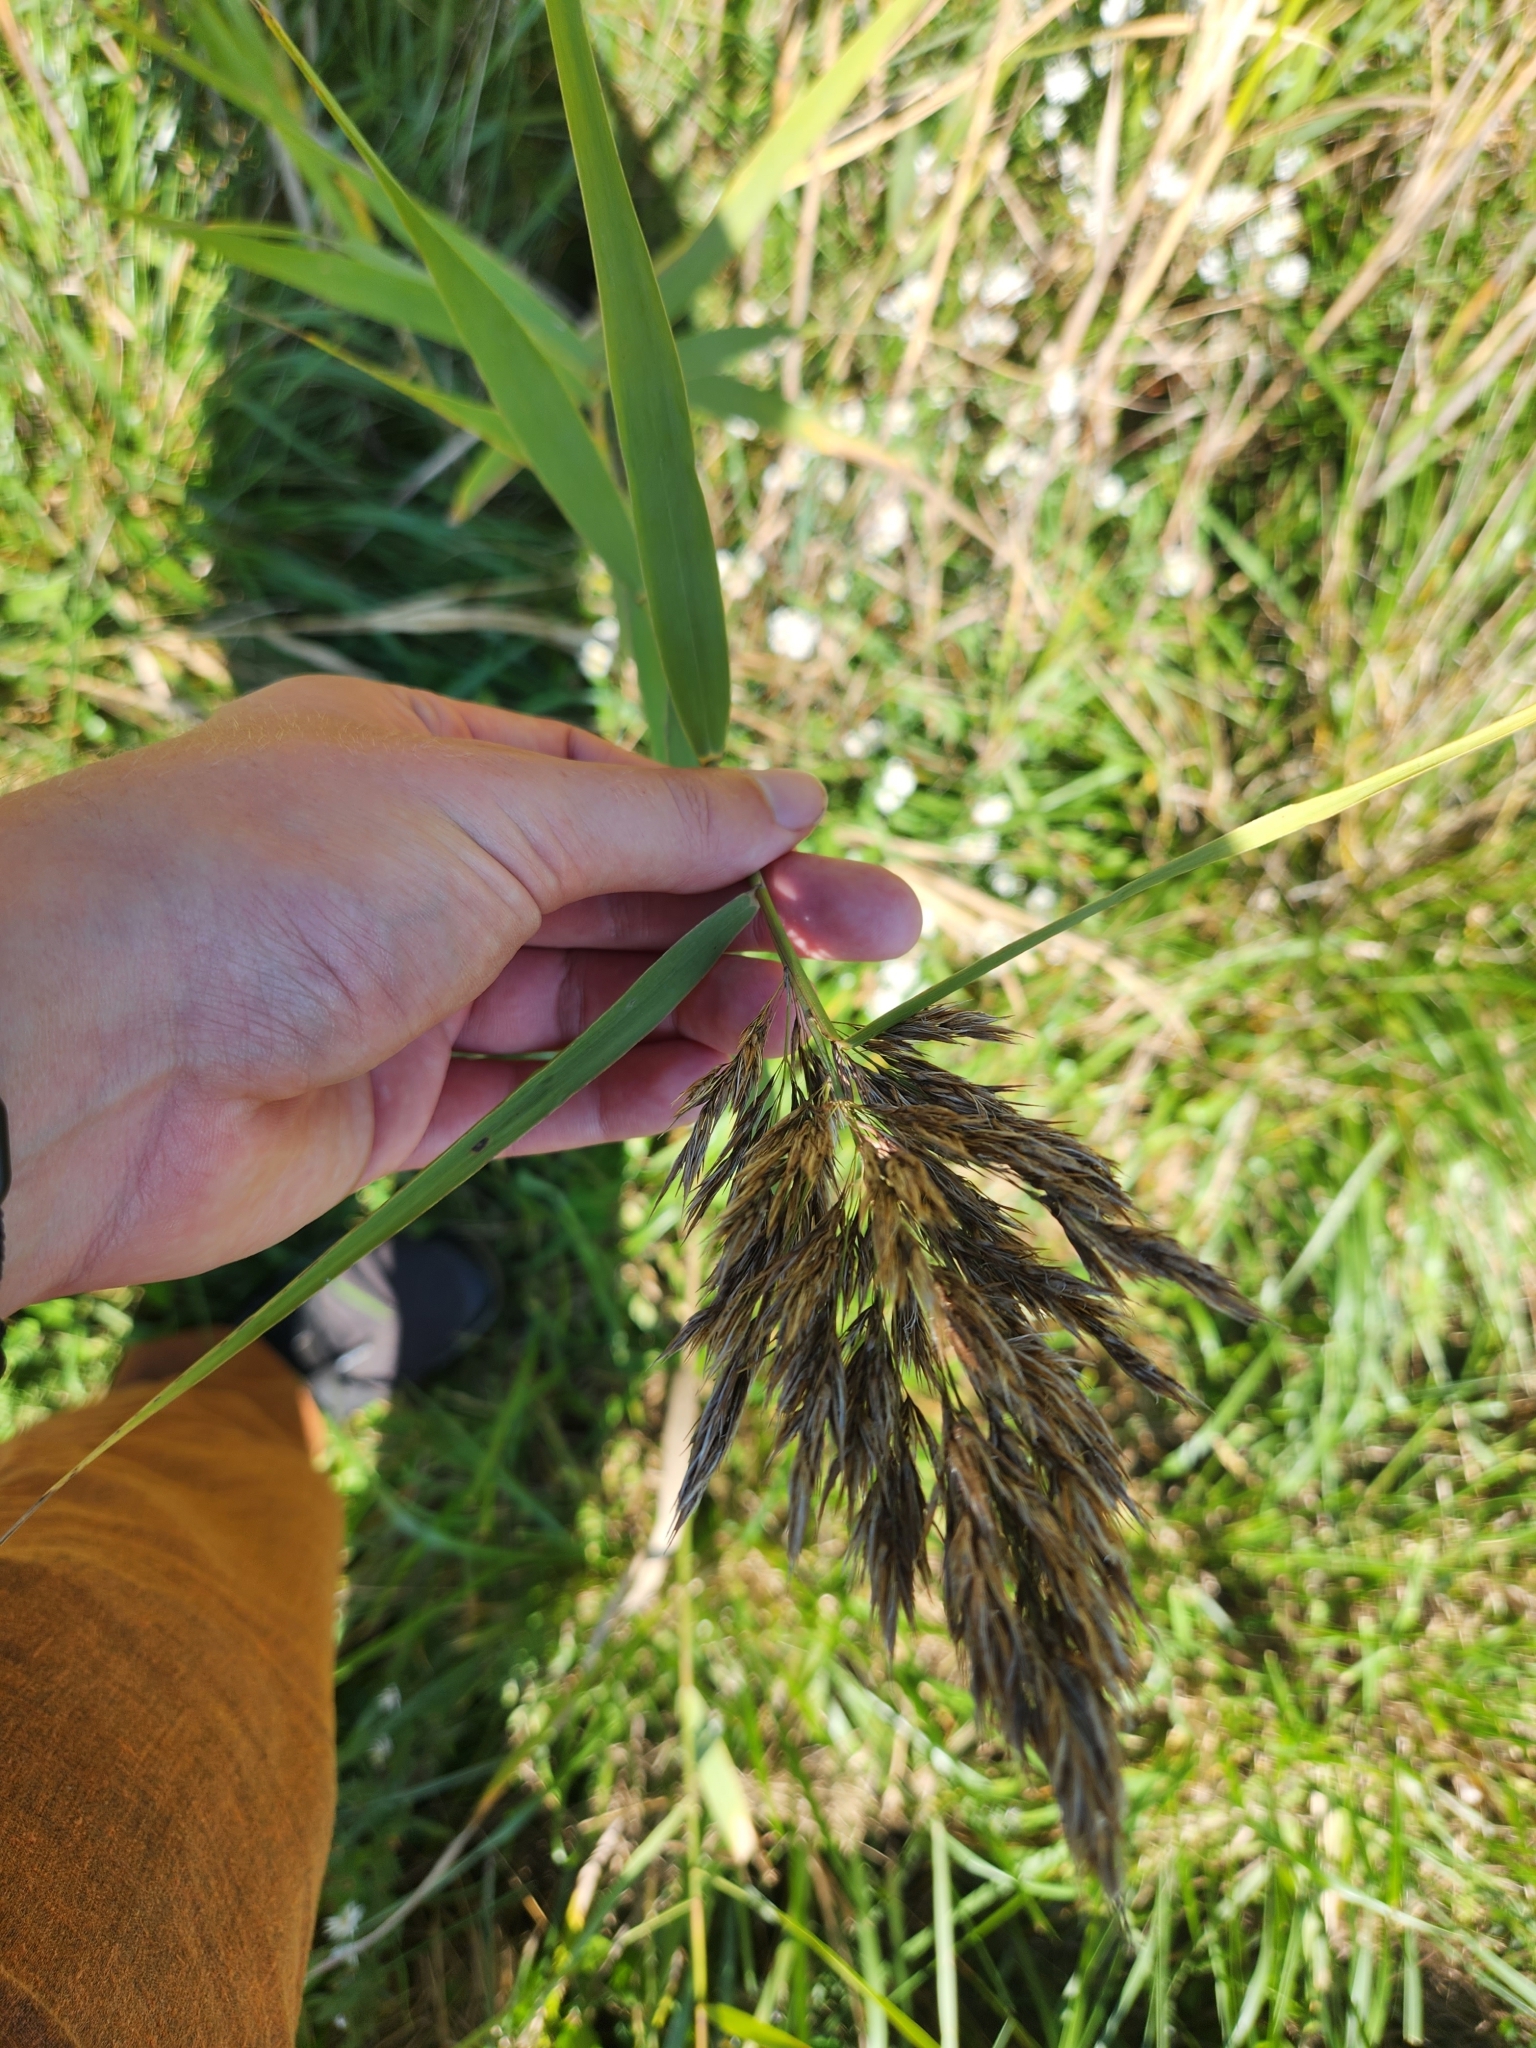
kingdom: Plantae
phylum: Tracheophyta
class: Liliopsida
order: Poales
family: Poaceae
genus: Phalaris
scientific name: Phalaris arundinacea
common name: Reed canary-grass
